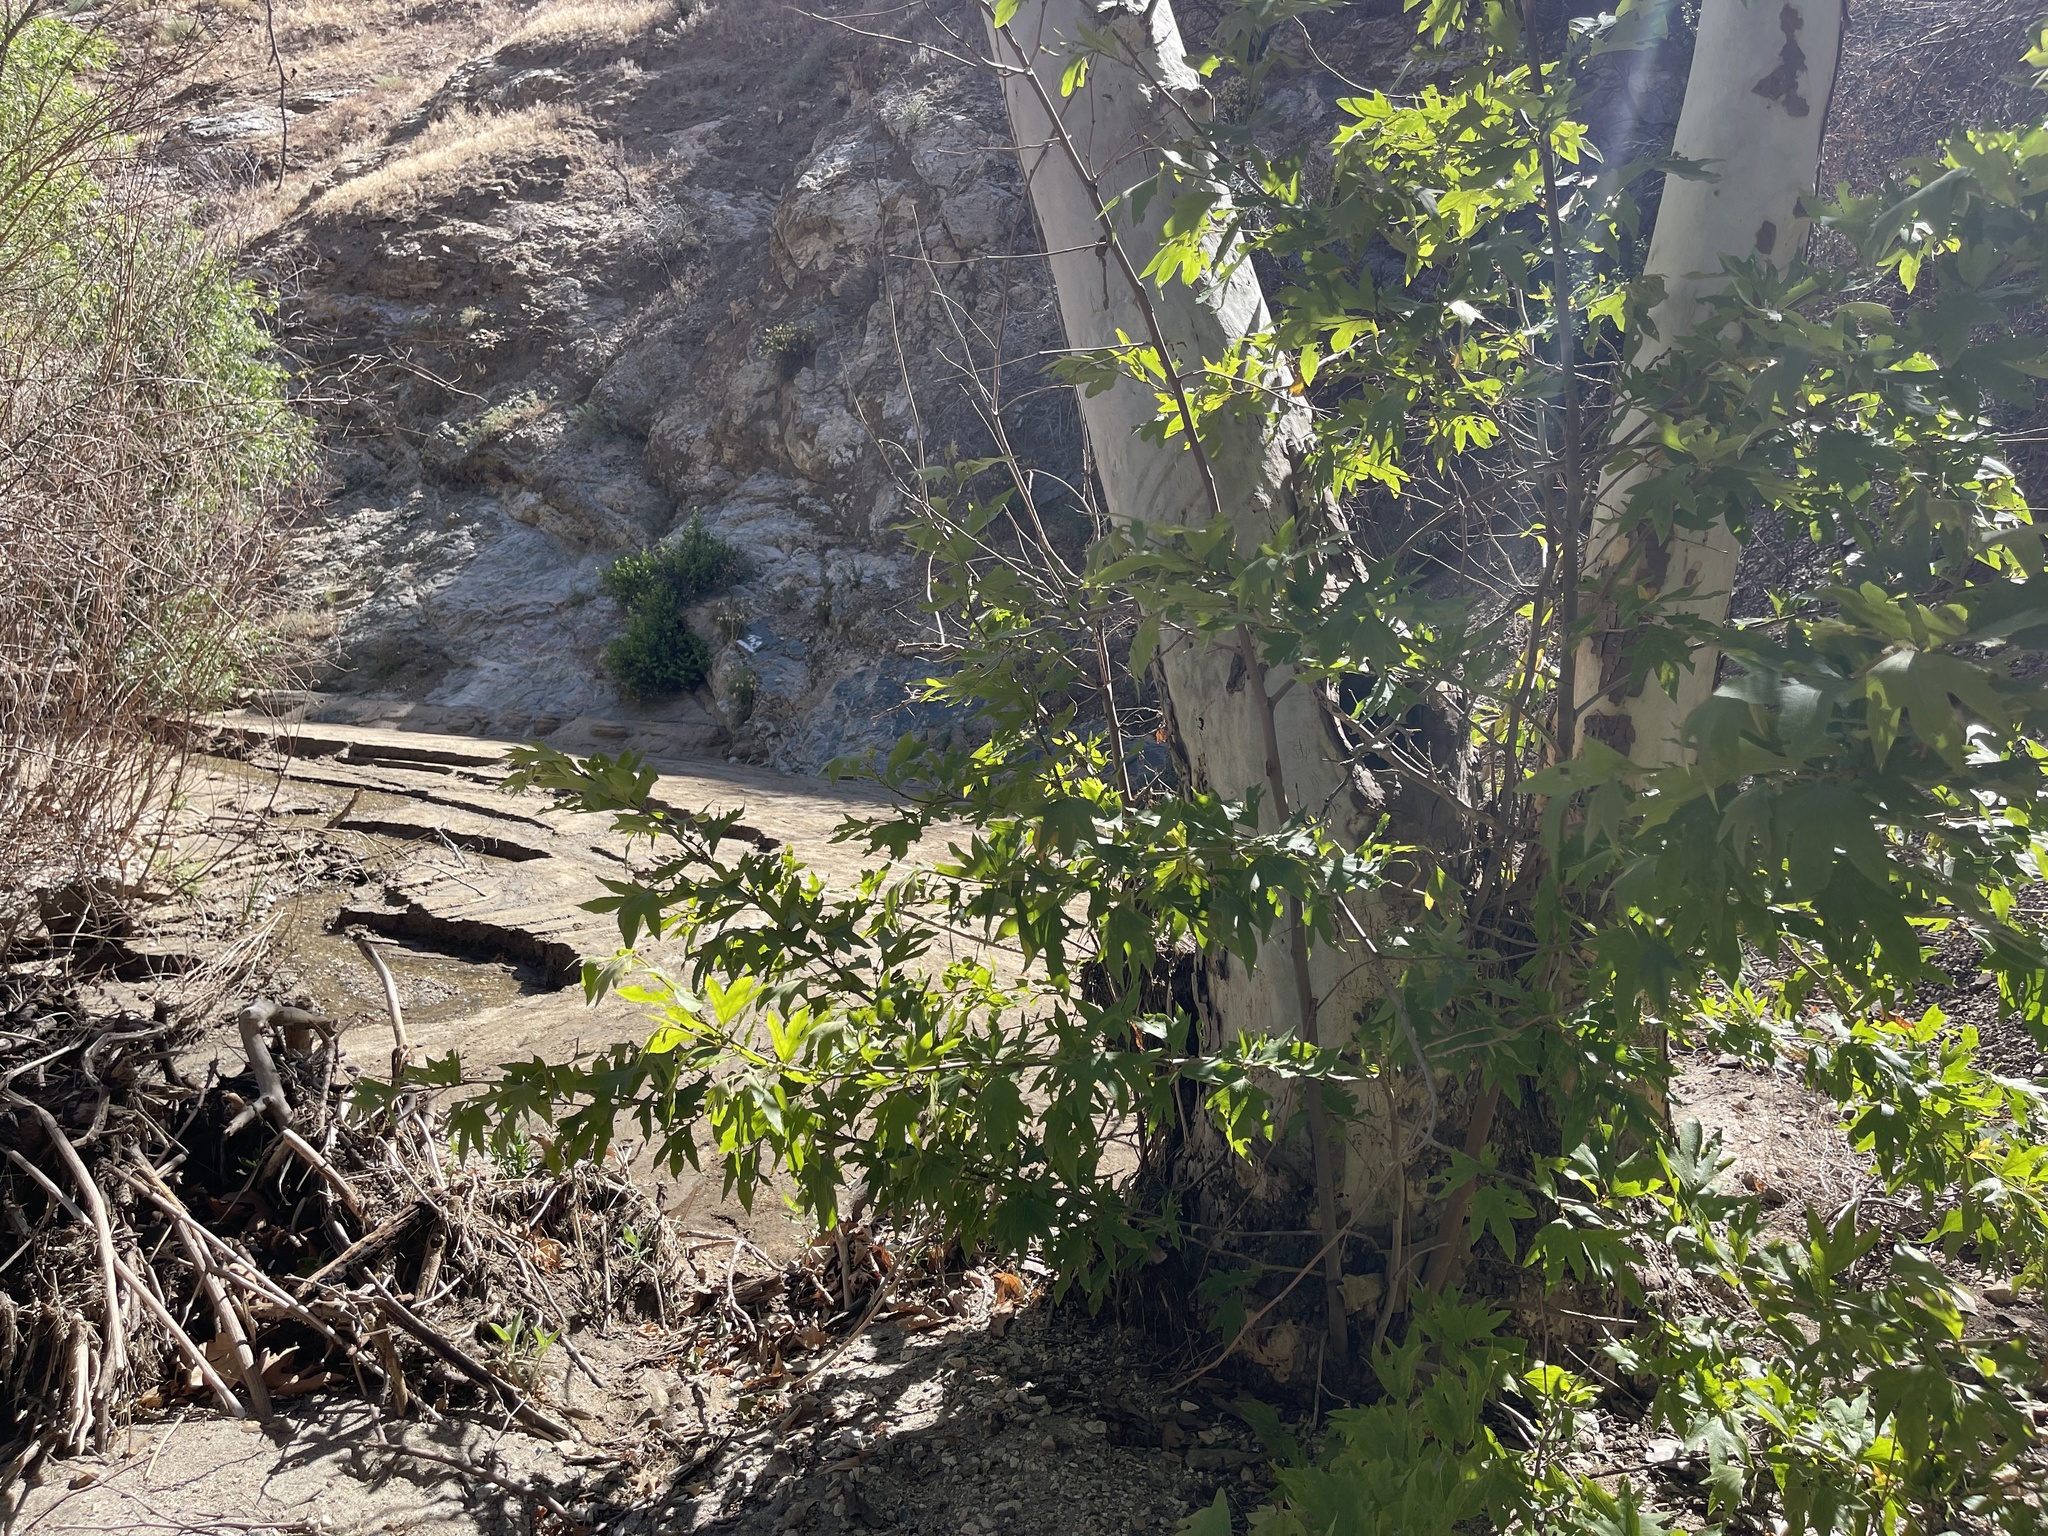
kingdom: Plantae
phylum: Tracheophyta
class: Magnoliopsida
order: Proteales
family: Platanaceae
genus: Platanus
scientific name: Platanus racemosa
